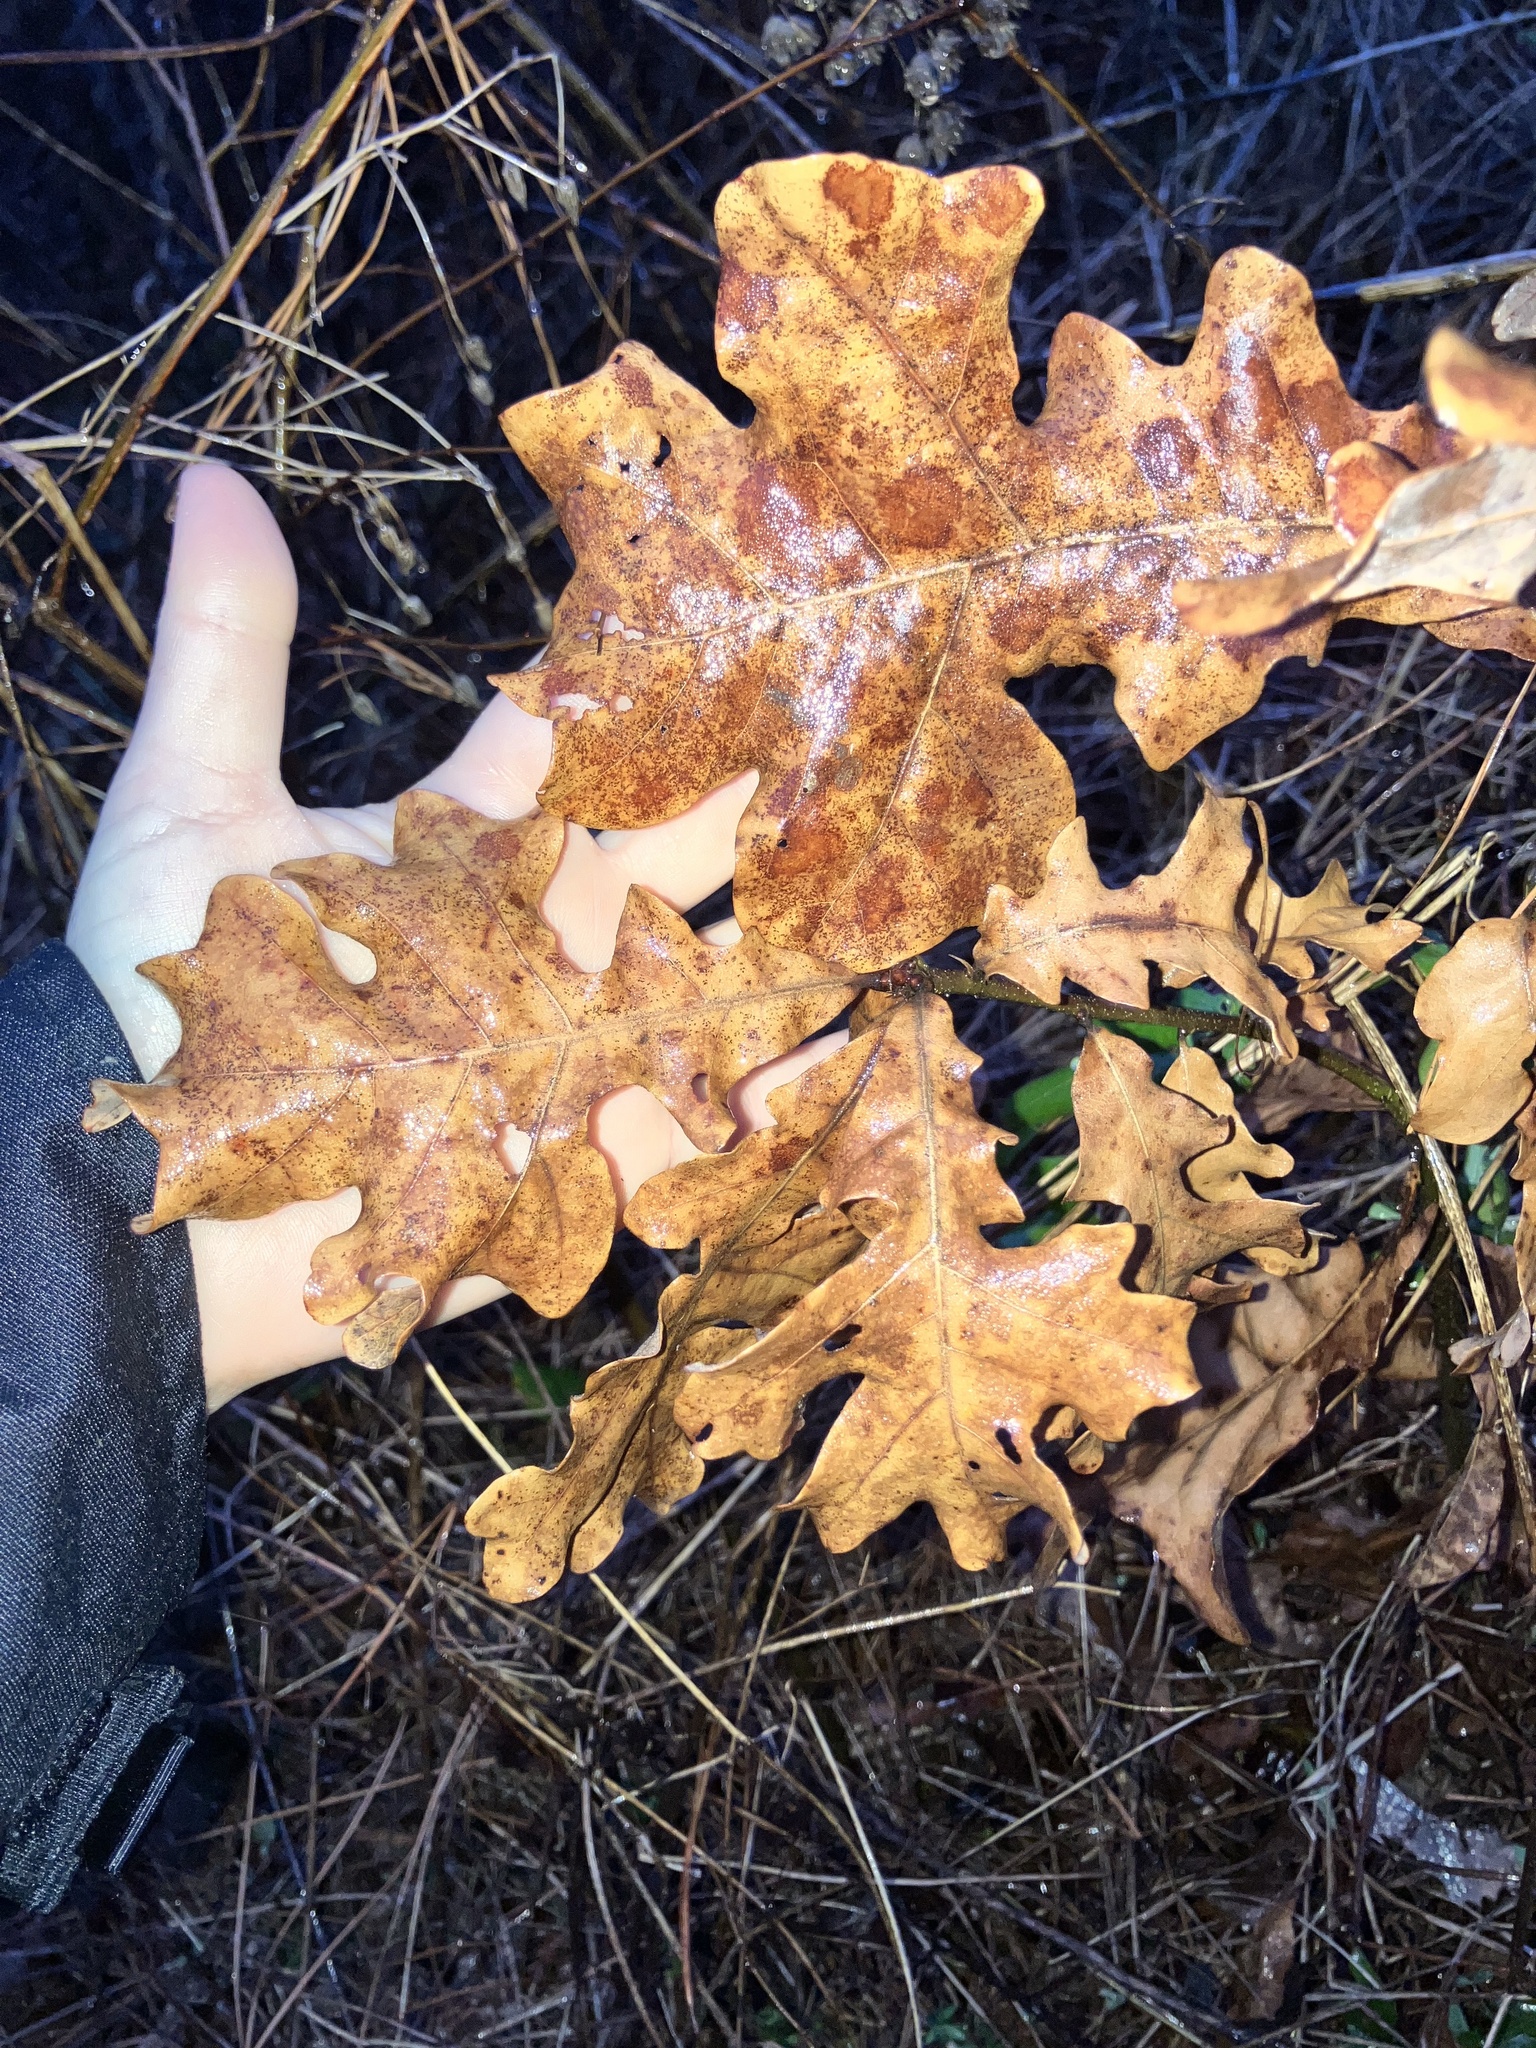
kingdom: Plantae
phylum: Tracheophyta
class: Magnoliopsida
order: Fagales
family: Fagaceae
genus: Quercus
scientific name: Quercus stellata
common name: Post oak
